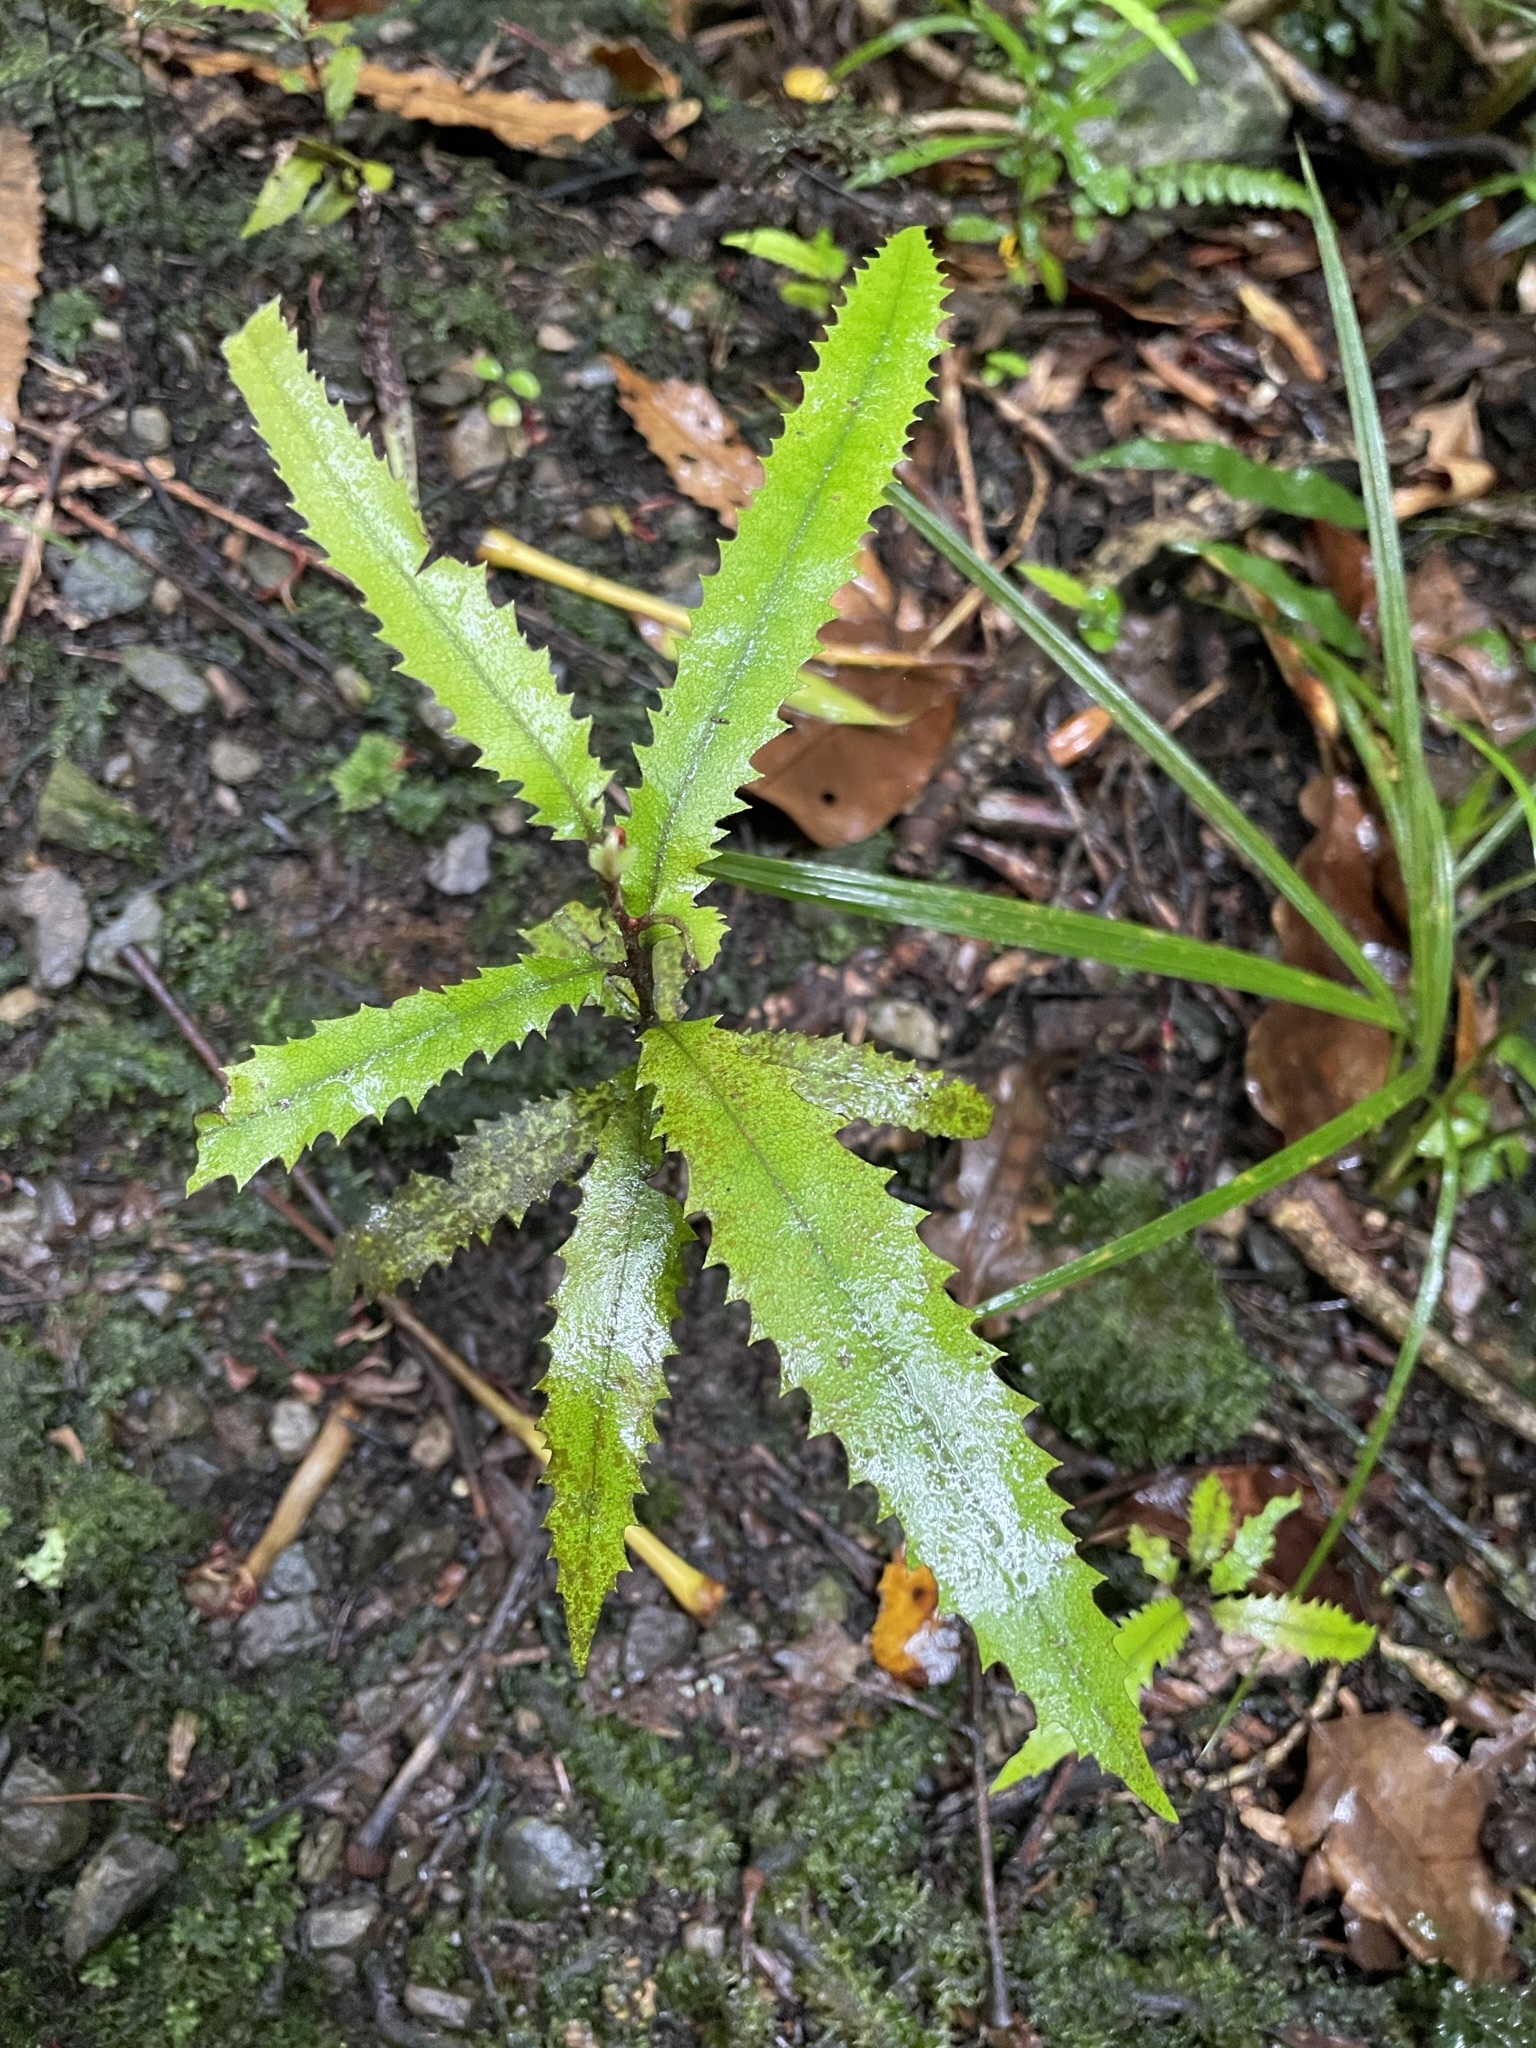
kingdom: Plantae
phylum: Tracheophyta
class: Magnoliopsida
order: Proteales
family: Proteaceae
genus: Knightia
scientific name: Knightia excelsa
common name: New zealand-honeysuckle
